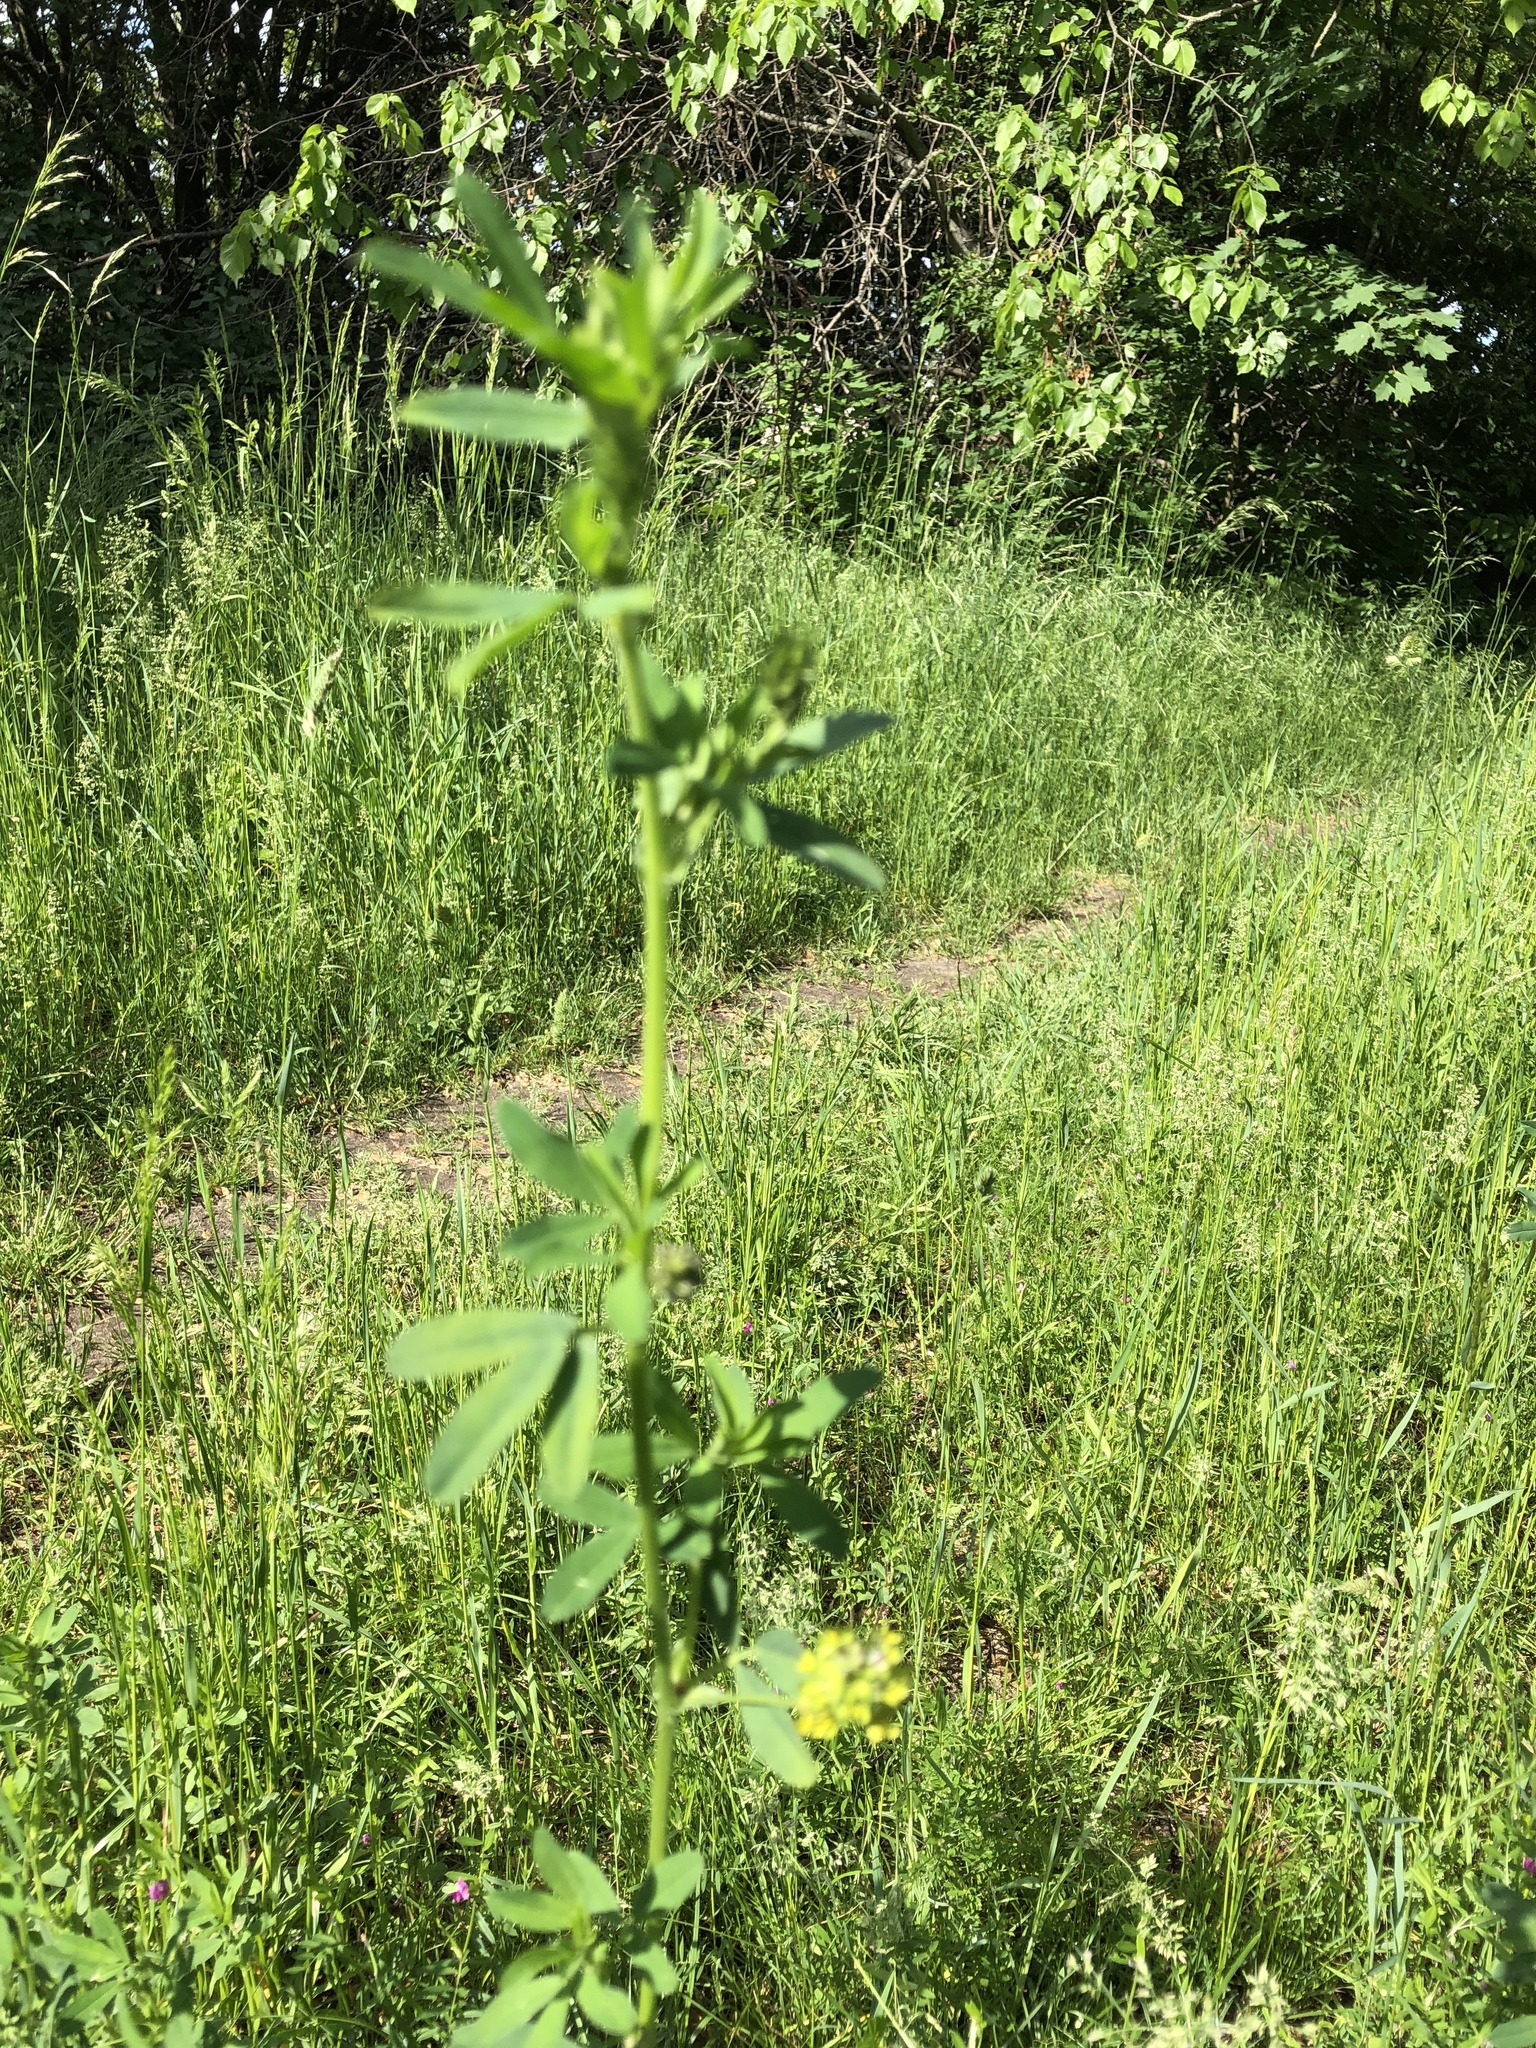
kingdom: Plantae
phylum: Tracheophyta
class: Magnoliopsida
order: Fabales
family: Fabaceae
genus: Medicago
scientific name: Medicago varia
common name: Sand lucerne
